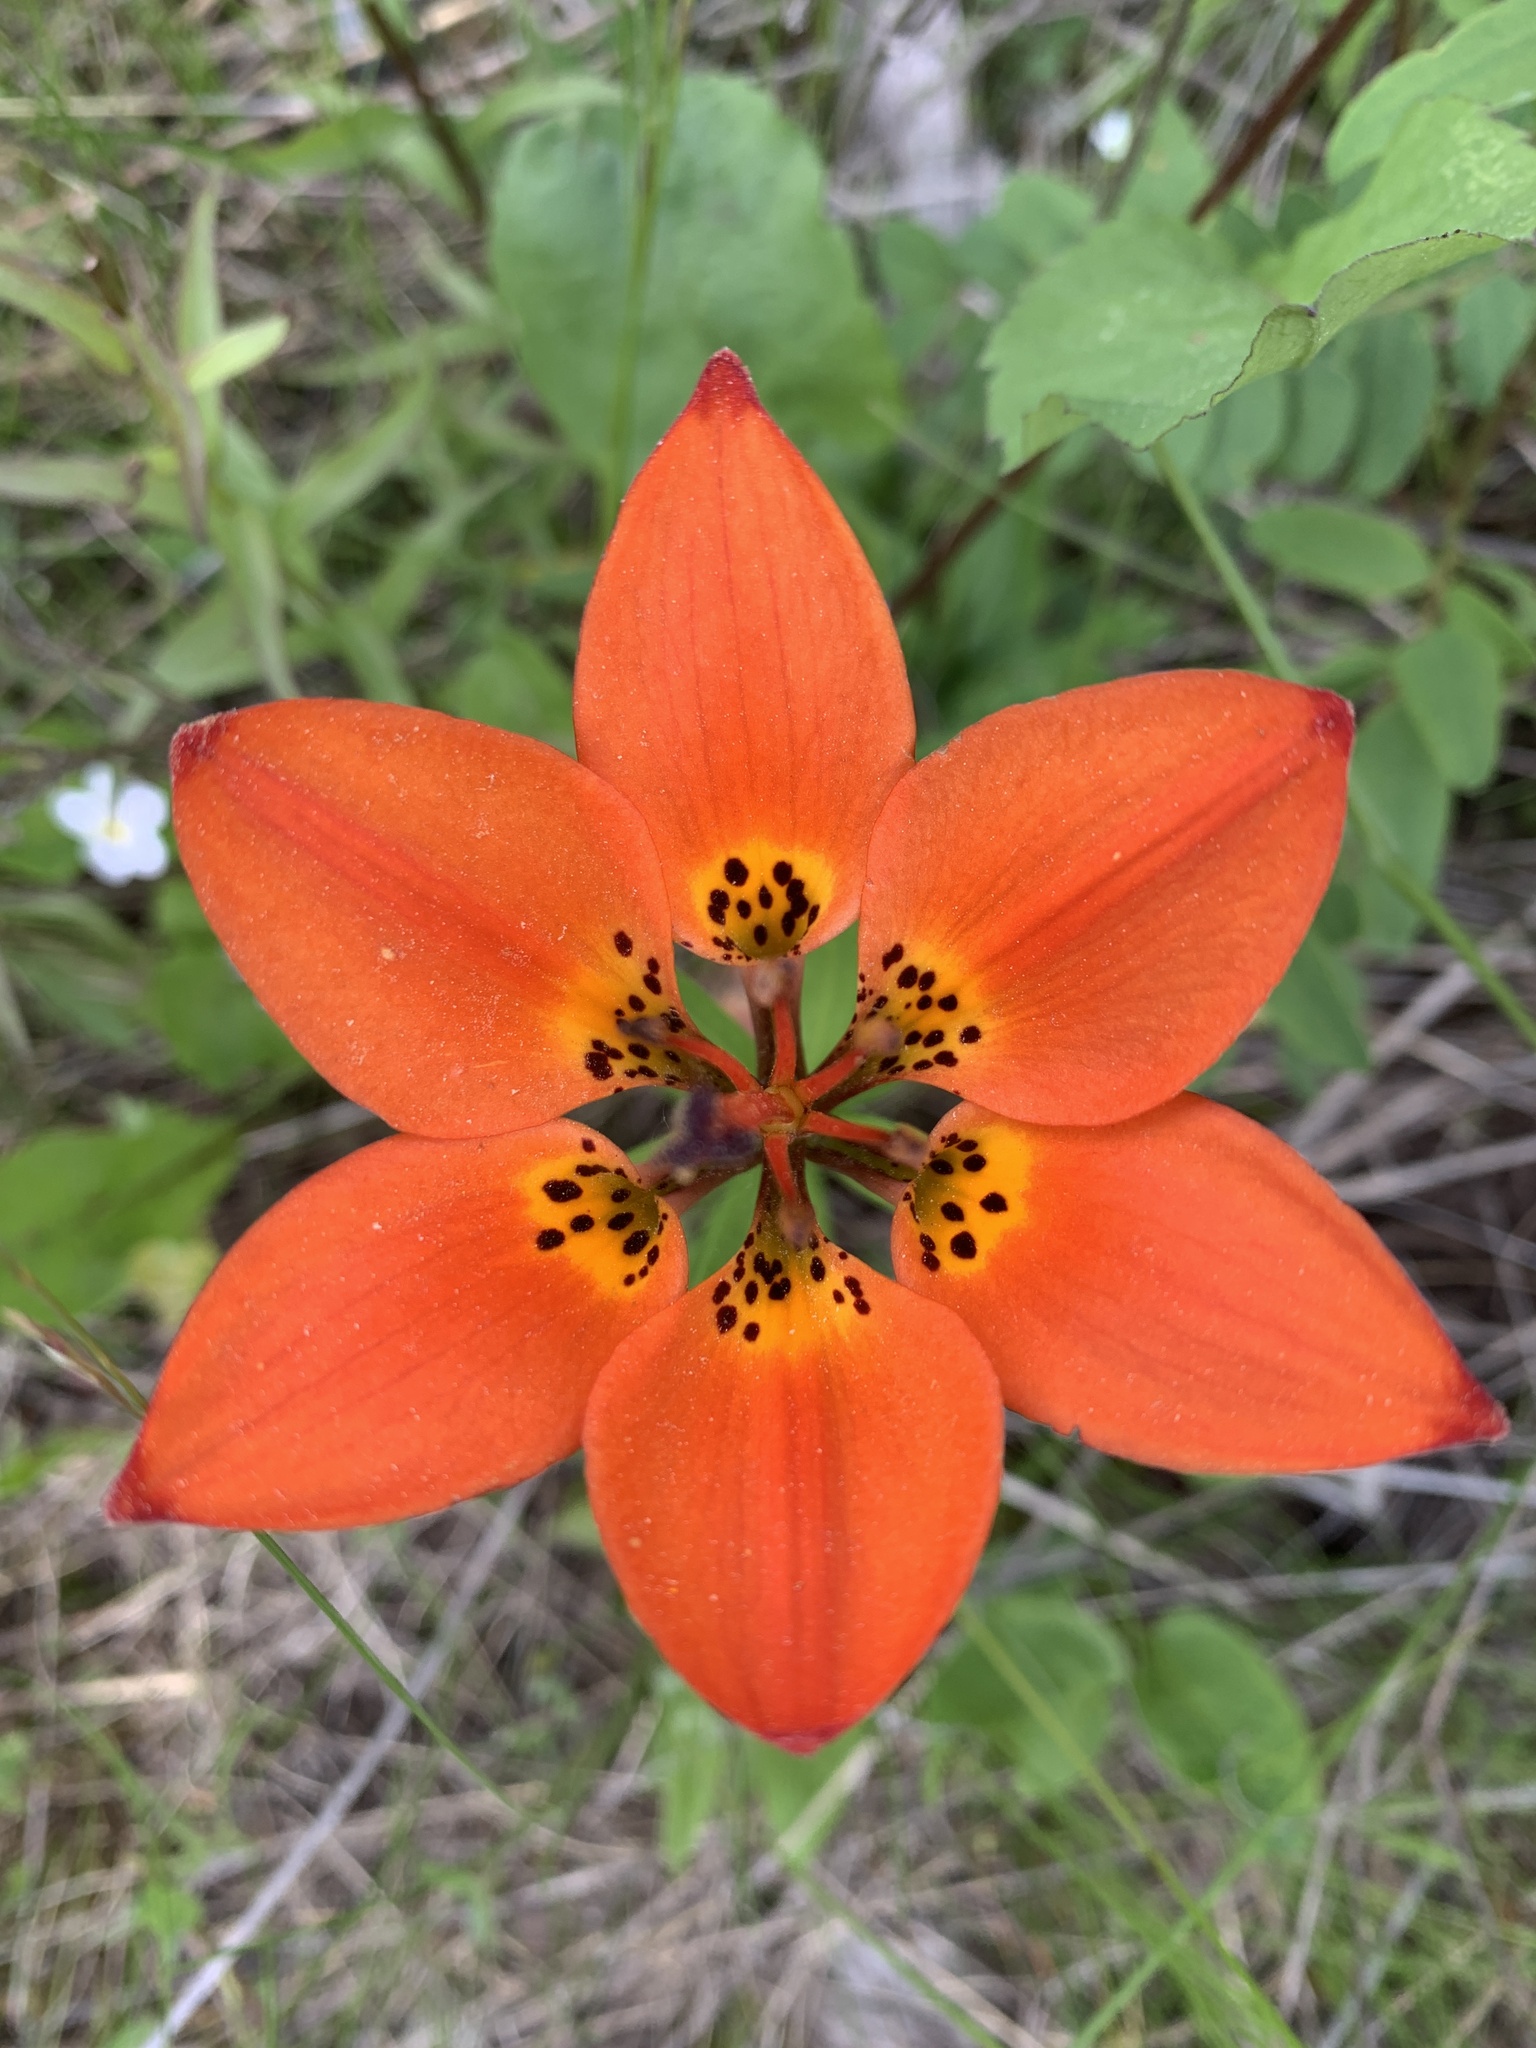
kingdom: Plantae
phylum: Tracheophyta
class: Liliopsida
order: Liliales
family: Liliaceae
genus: Lilium
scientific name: Lilium philadelphicum
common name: Red lily
